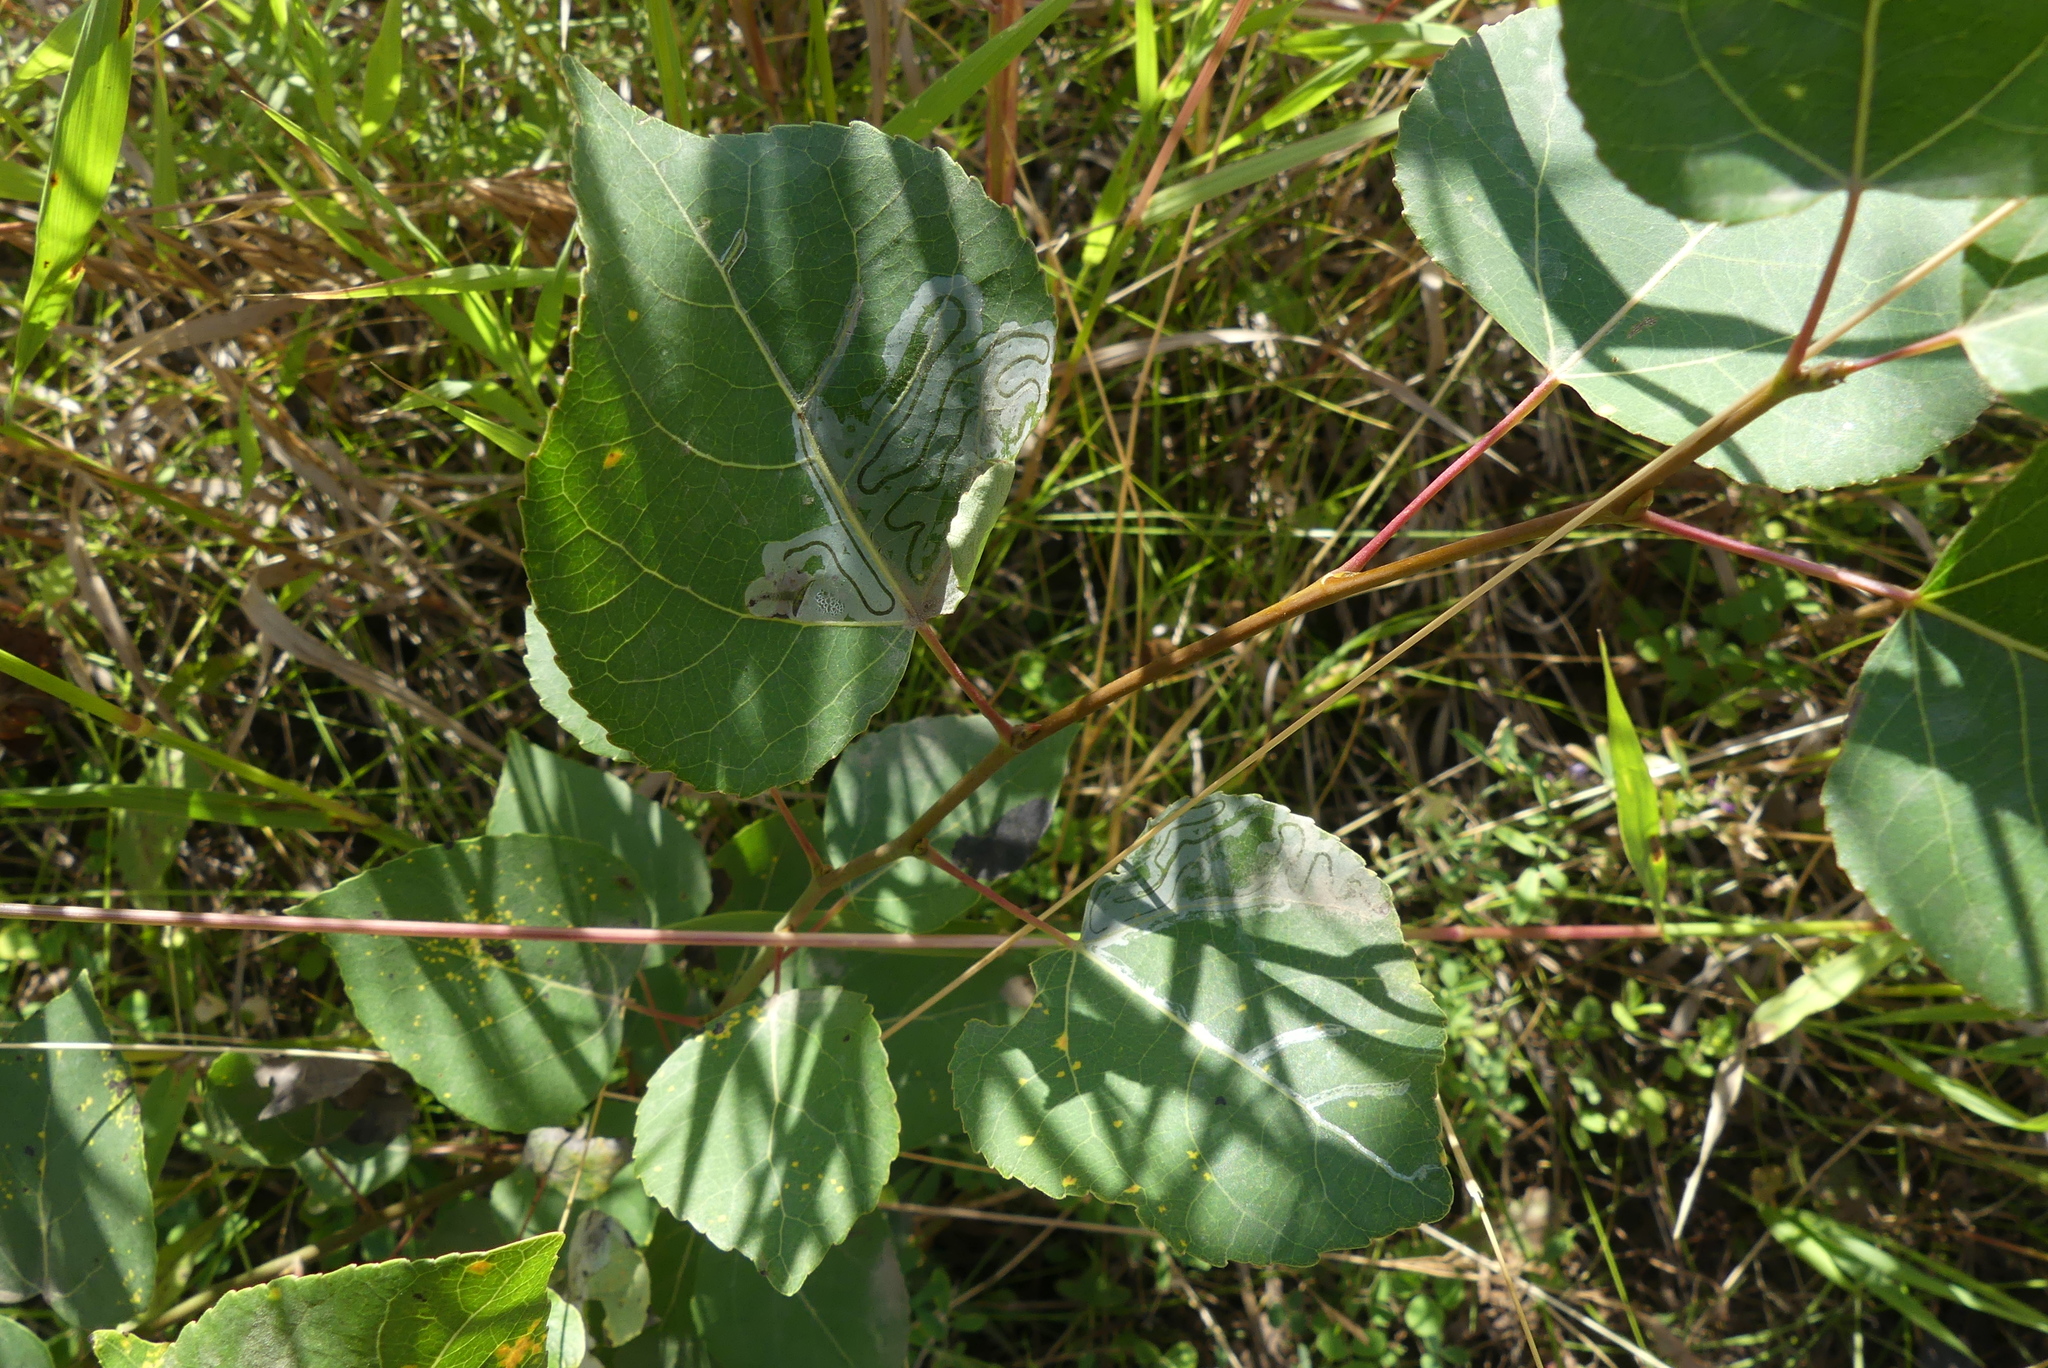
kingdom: Animalia
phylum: Arthropoda
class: Insecta
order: Lepidoptera
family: Gracillariidae
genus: Phyllocnistis
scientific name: Phyllocnistis populiella
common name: Aspen serpentine leafminer moth
